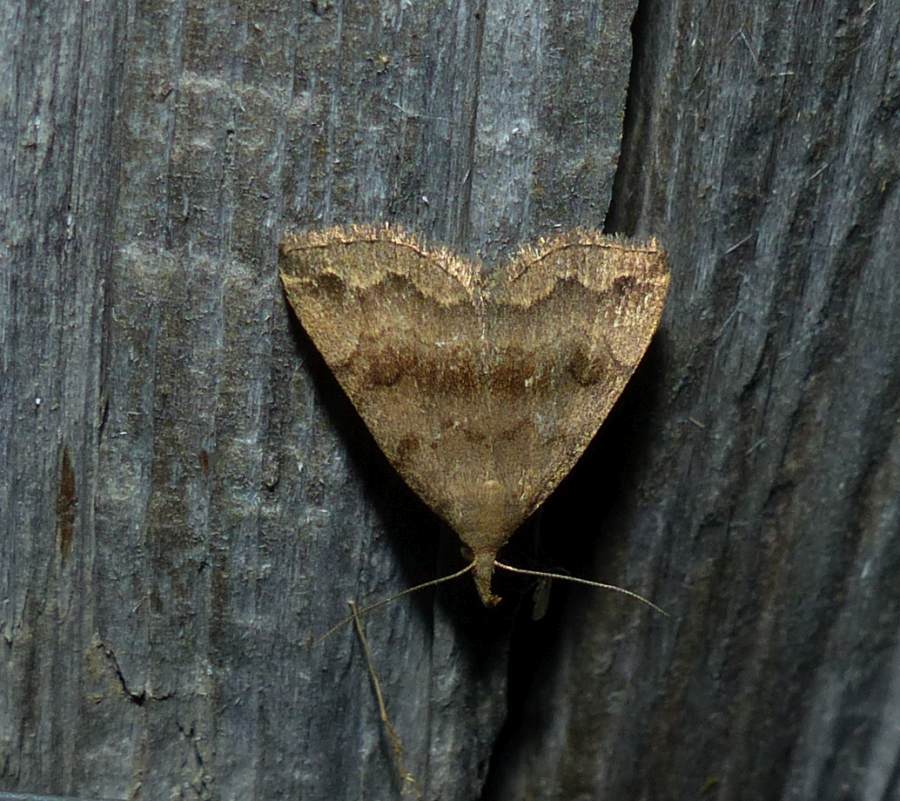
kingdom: Animalia
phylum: Arthropoda
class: Insecta
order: Lepidoptera
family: Erebidae
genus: Phalaenostola
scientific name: Phalaenostola eumelusalis
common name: Dark phalaenostola moth
